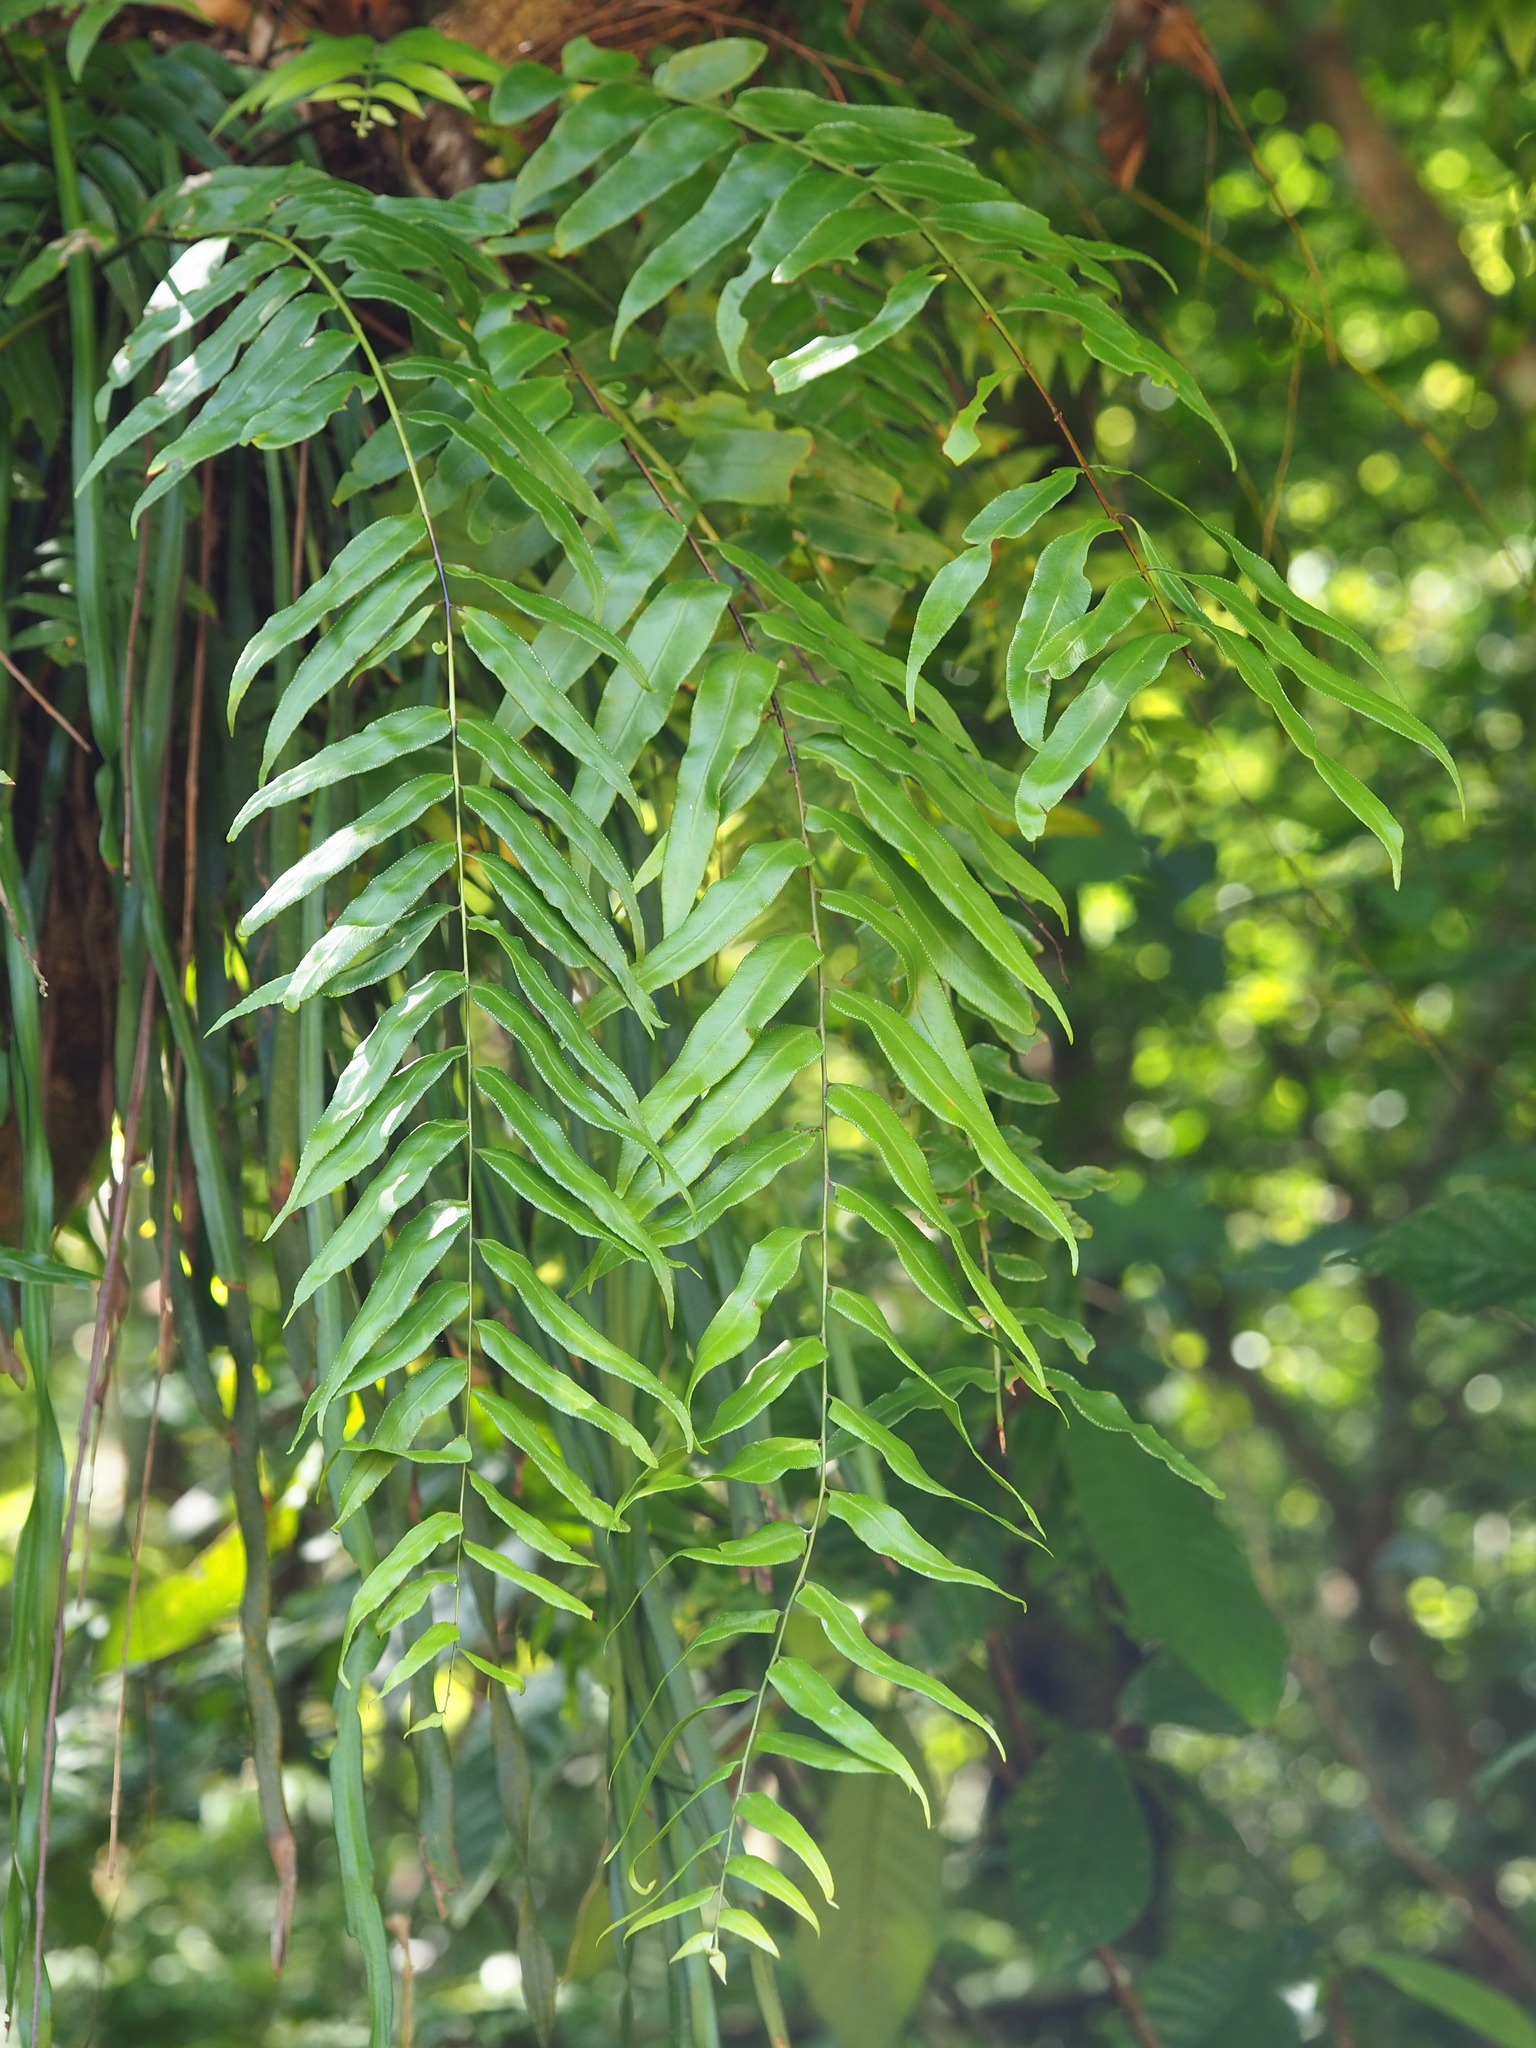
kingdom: Plantae
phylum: Tracheophyta
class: Polypodiopsida
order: Polypodiales
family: Nephrolepidaceae
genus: Nephrolepis
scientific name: Nephrolepis biserrata
